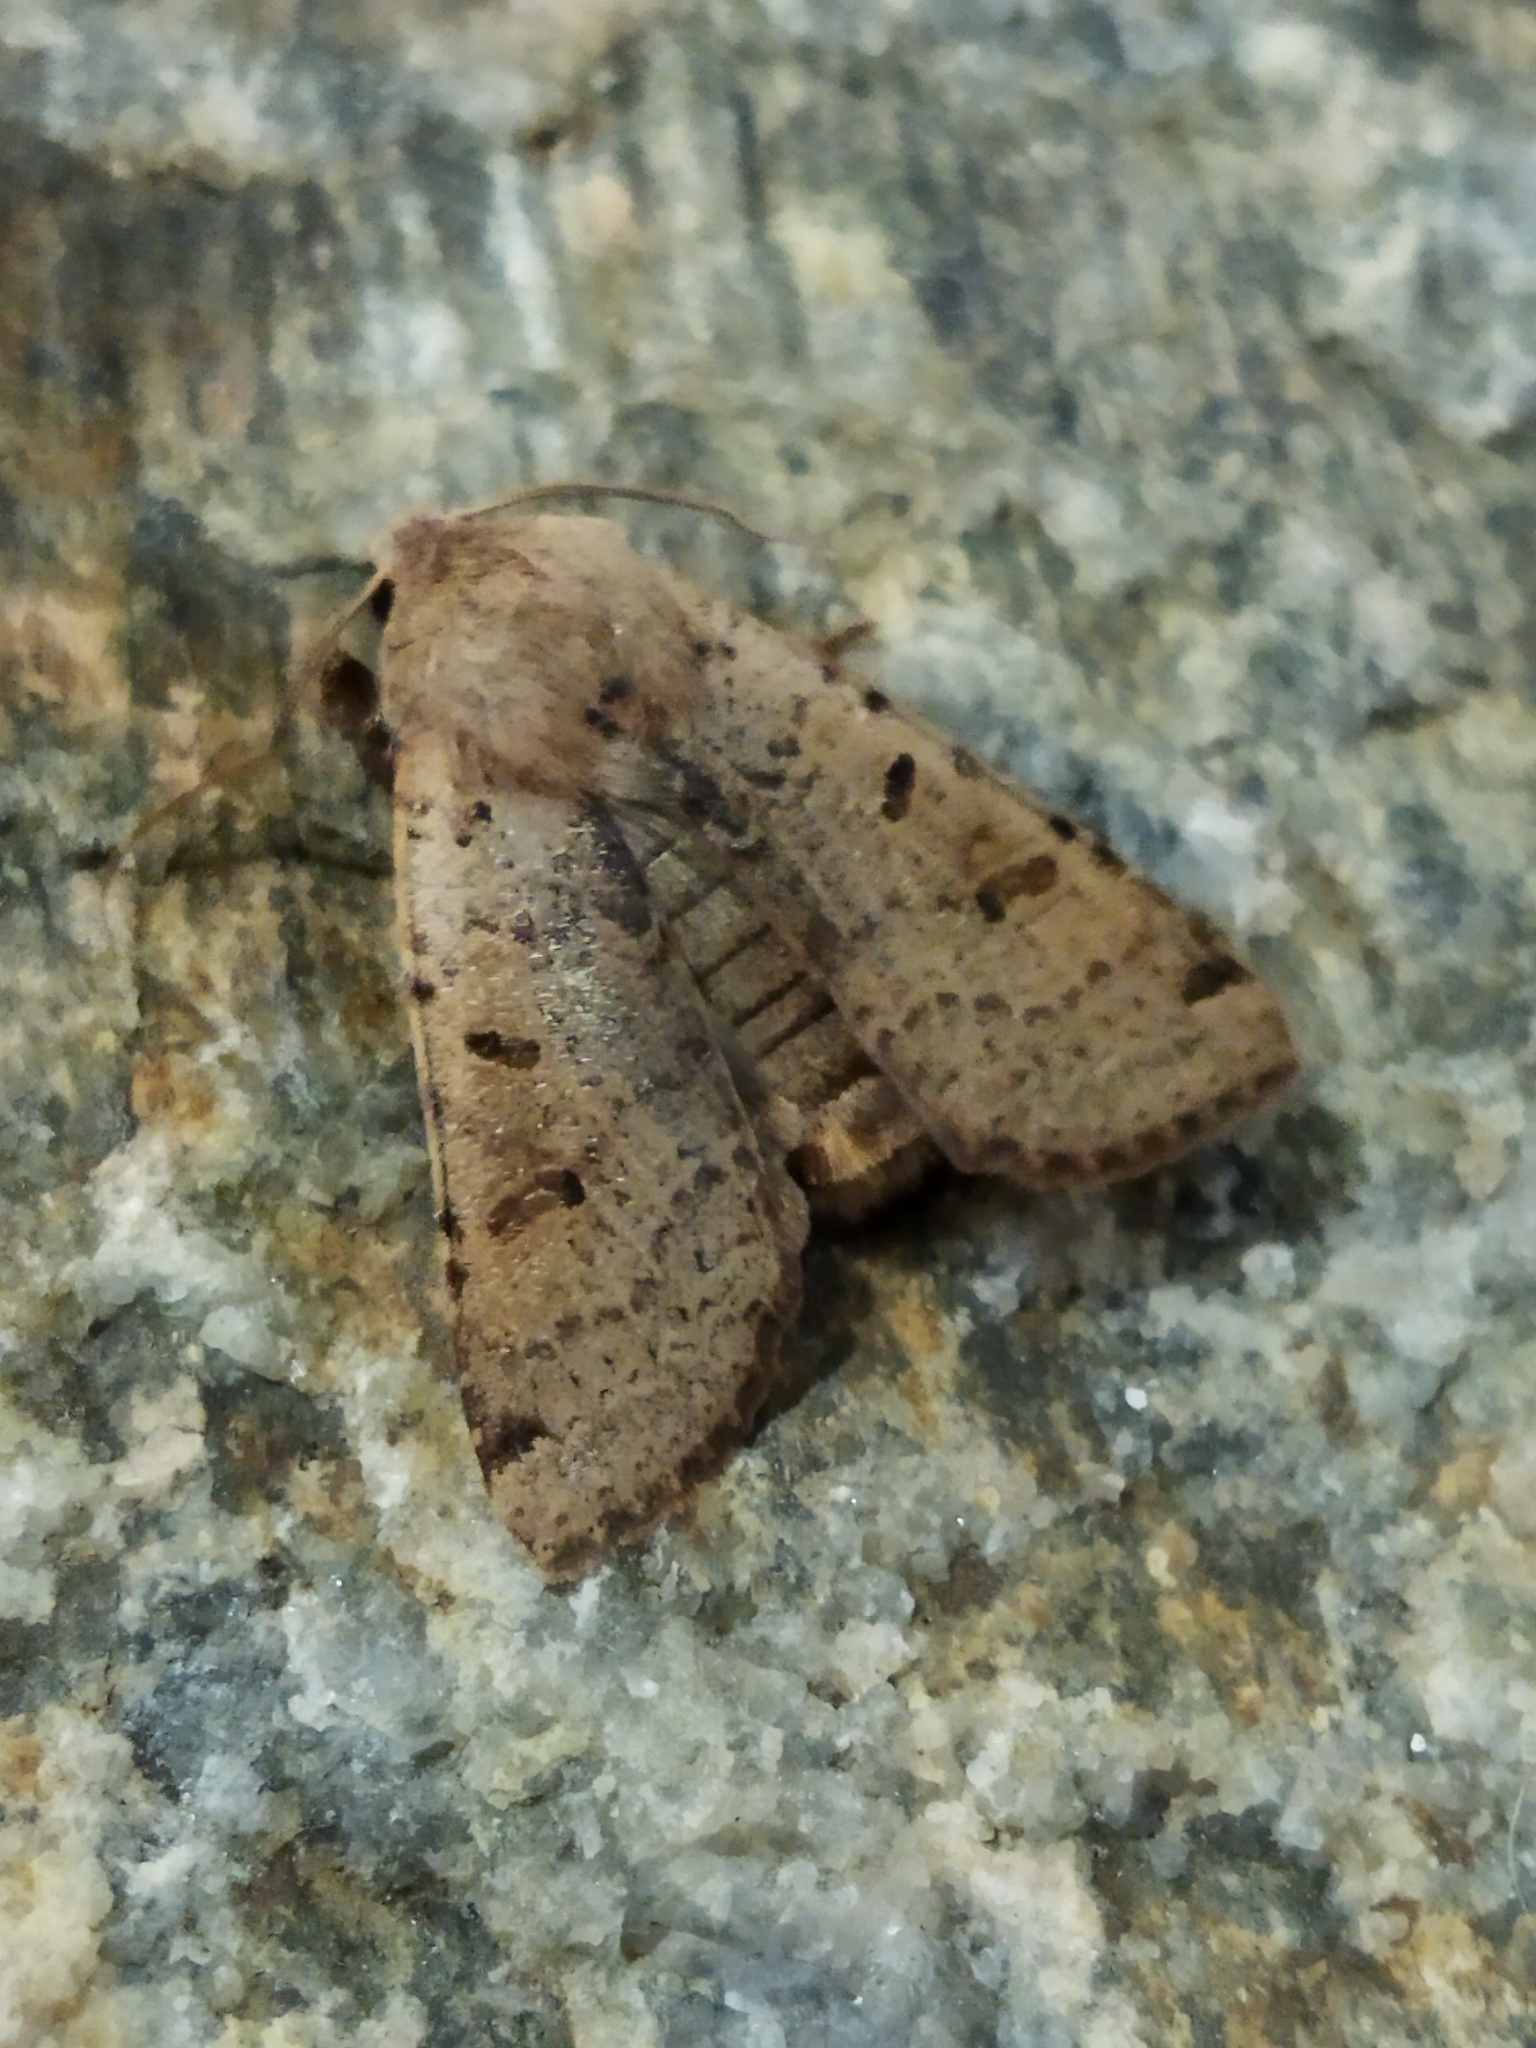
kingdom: Animalia
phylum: Arthropoda
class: Insecta
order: Lepidoptera
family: Noctuidae
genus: Agrochola
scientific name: Agrochola lychnidis
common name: Beaded chestnut
